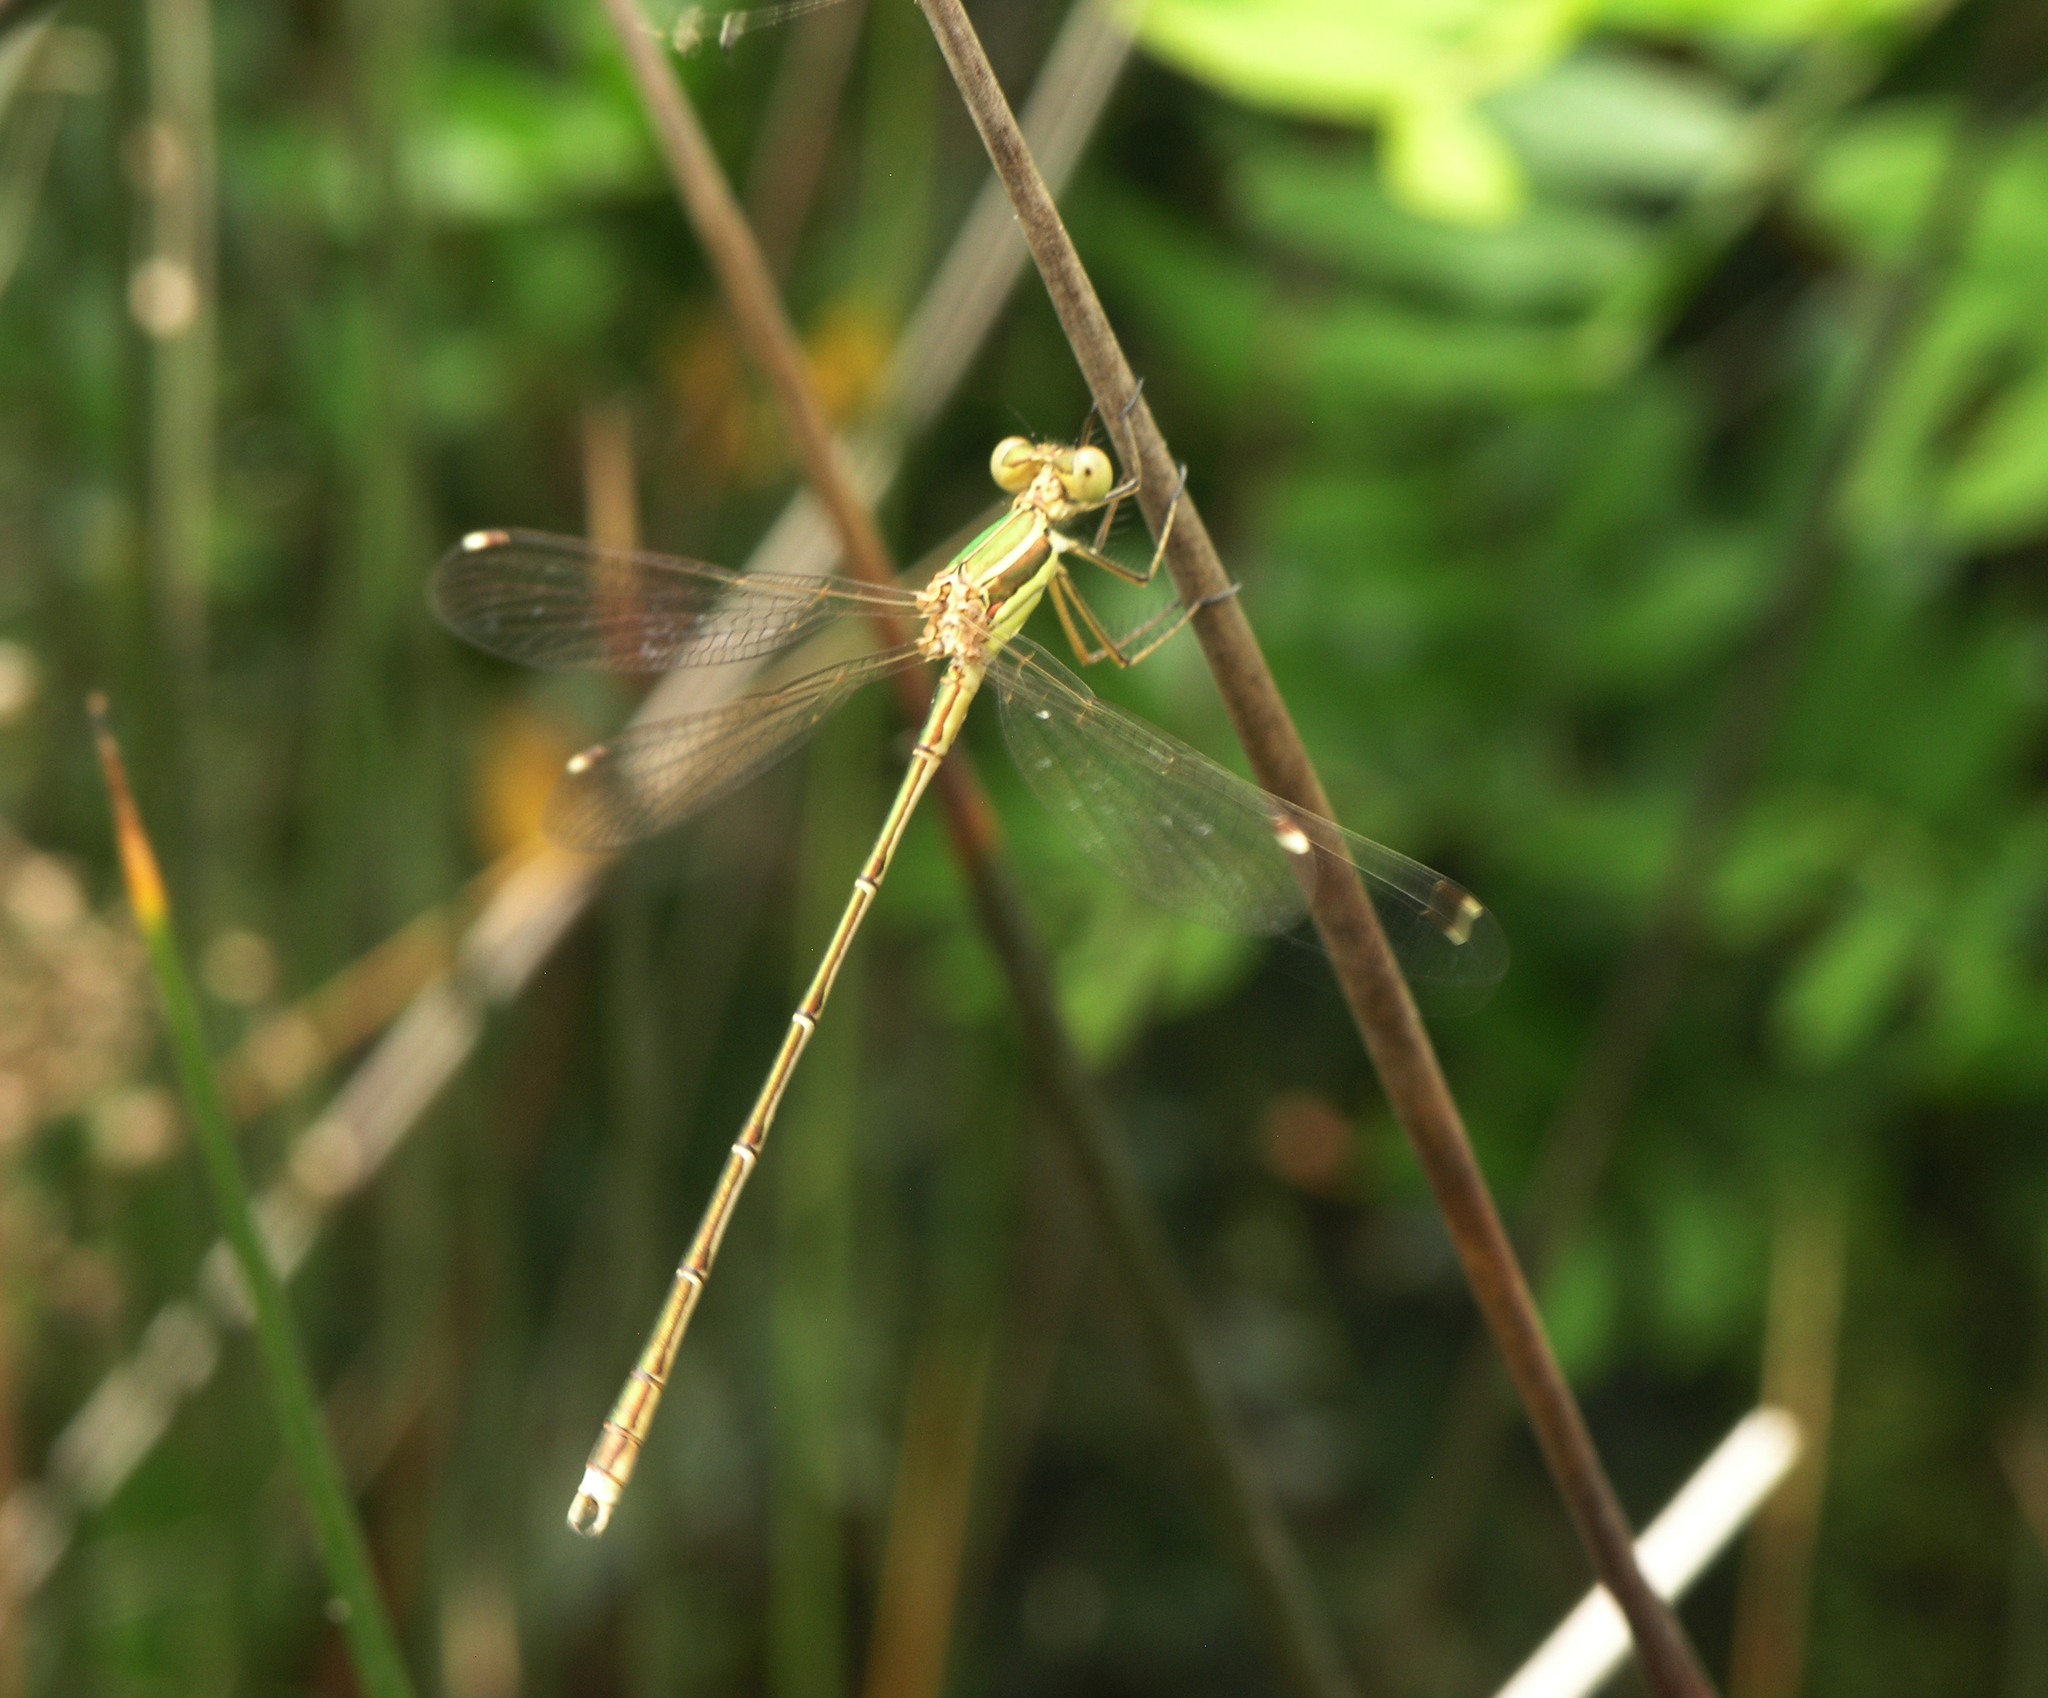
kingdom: Animalia
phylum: Arthropoda
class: Insecta
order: Odonata
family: Lestidae
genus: Lestes
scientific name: Lestes barbarus
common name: Migrant spreadwing
